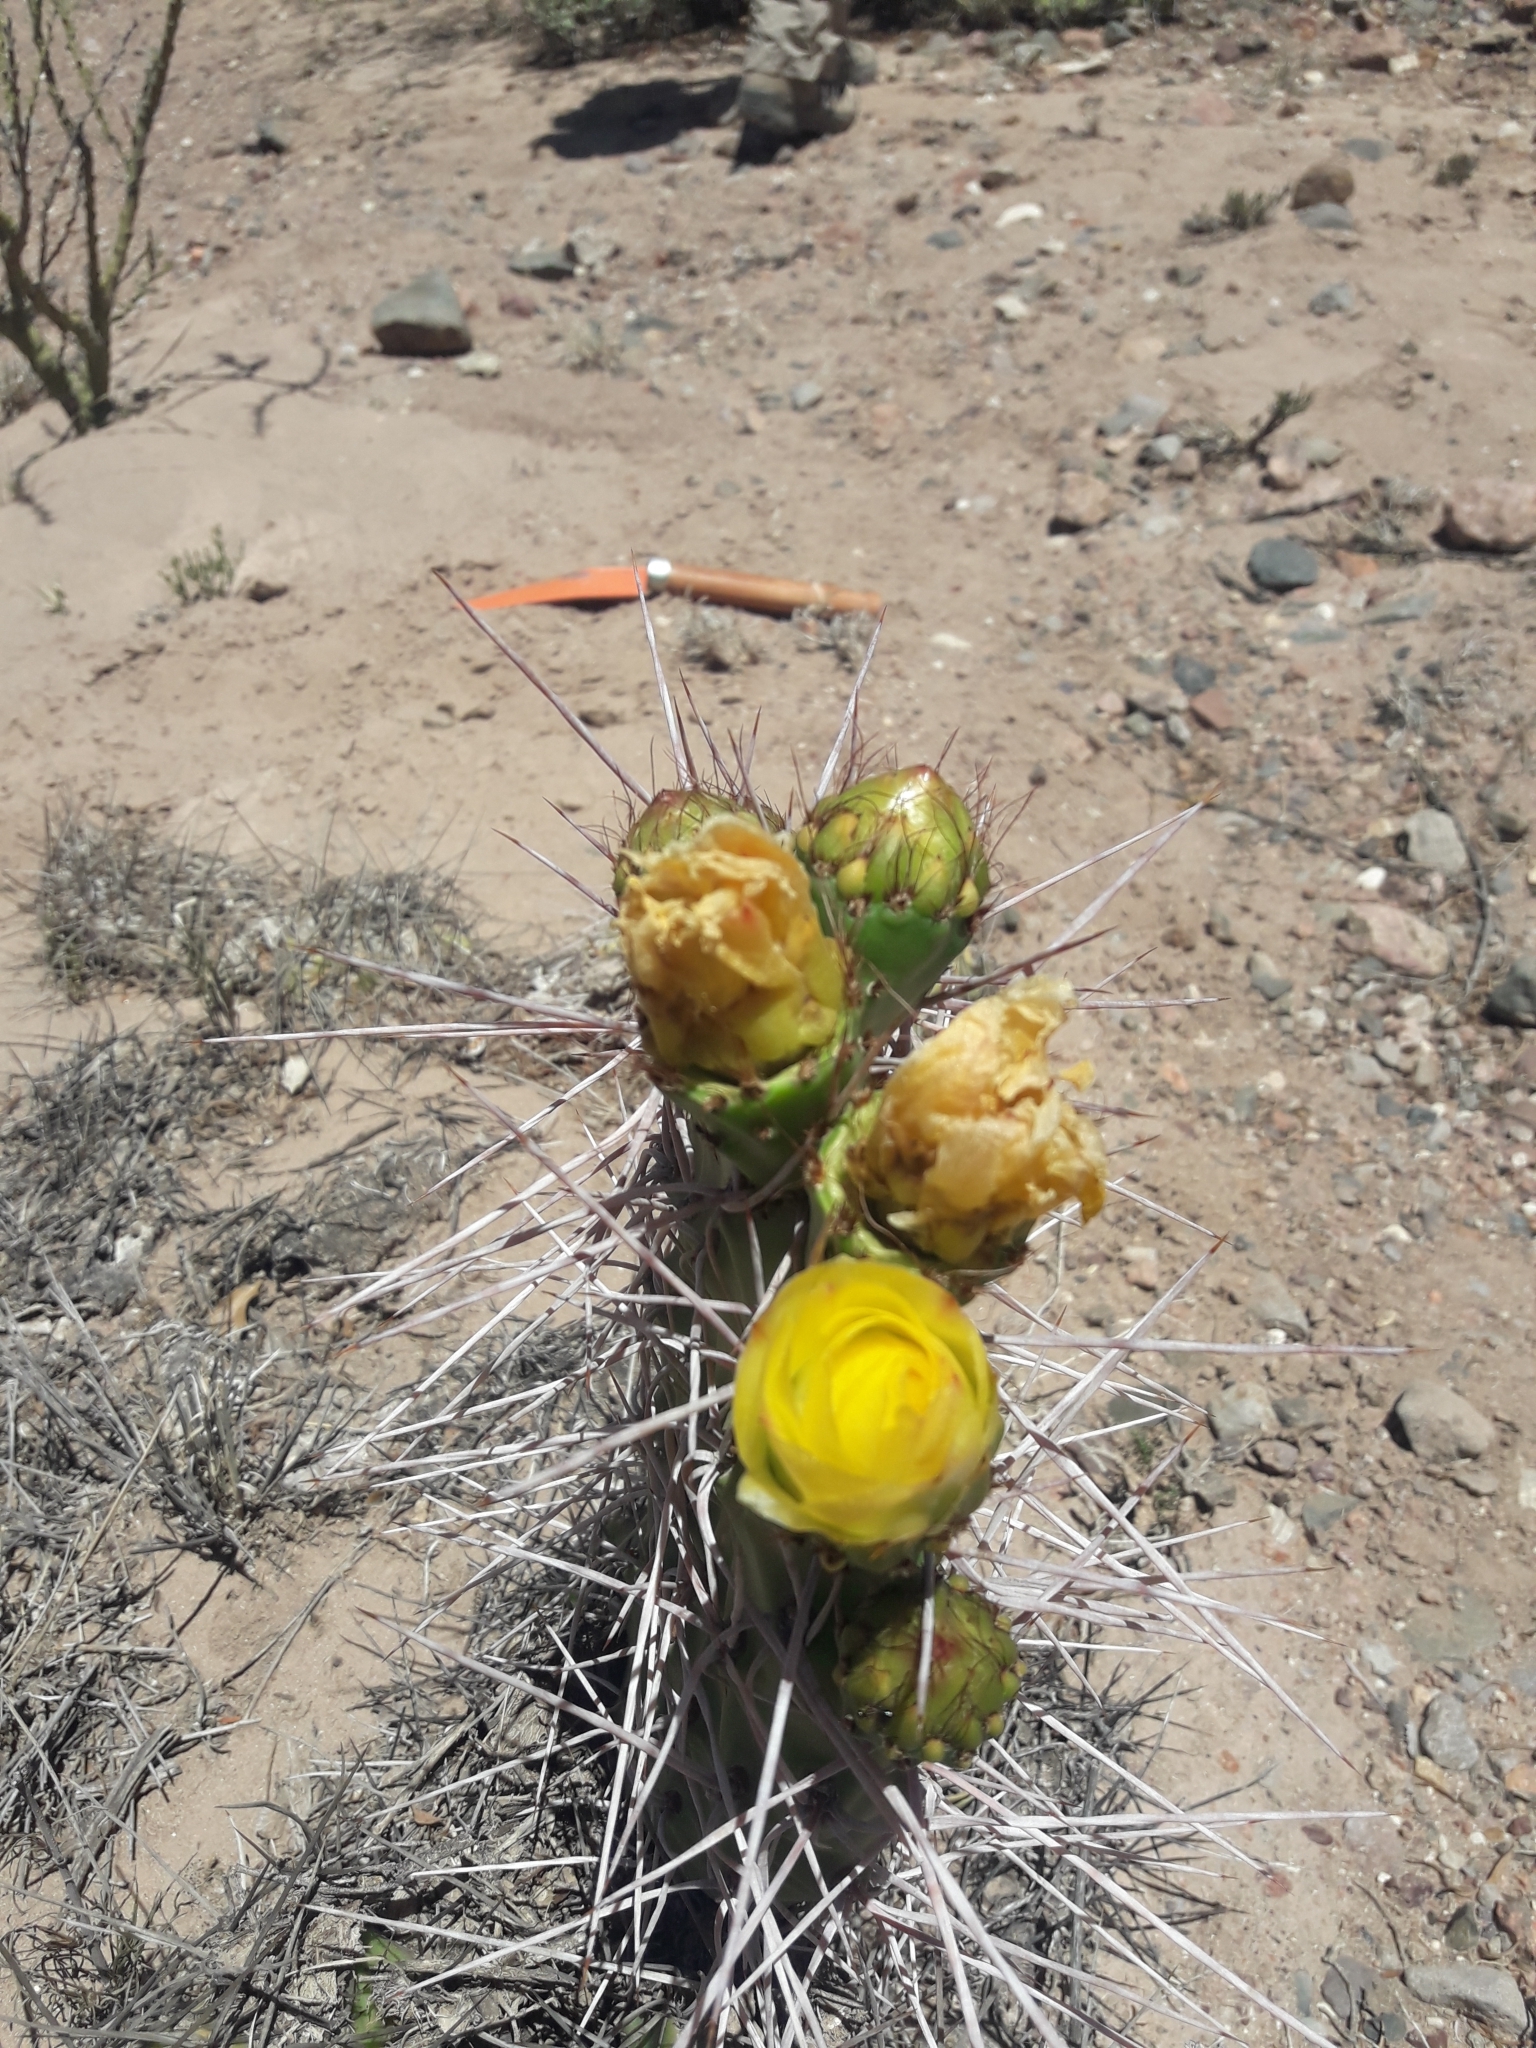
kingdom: Plantae
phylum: Tracheophyta
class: Magnoliopsida
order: Caryophyllales
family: Cactaceae
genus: Opuntia
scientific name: Opuntia sulphurea
